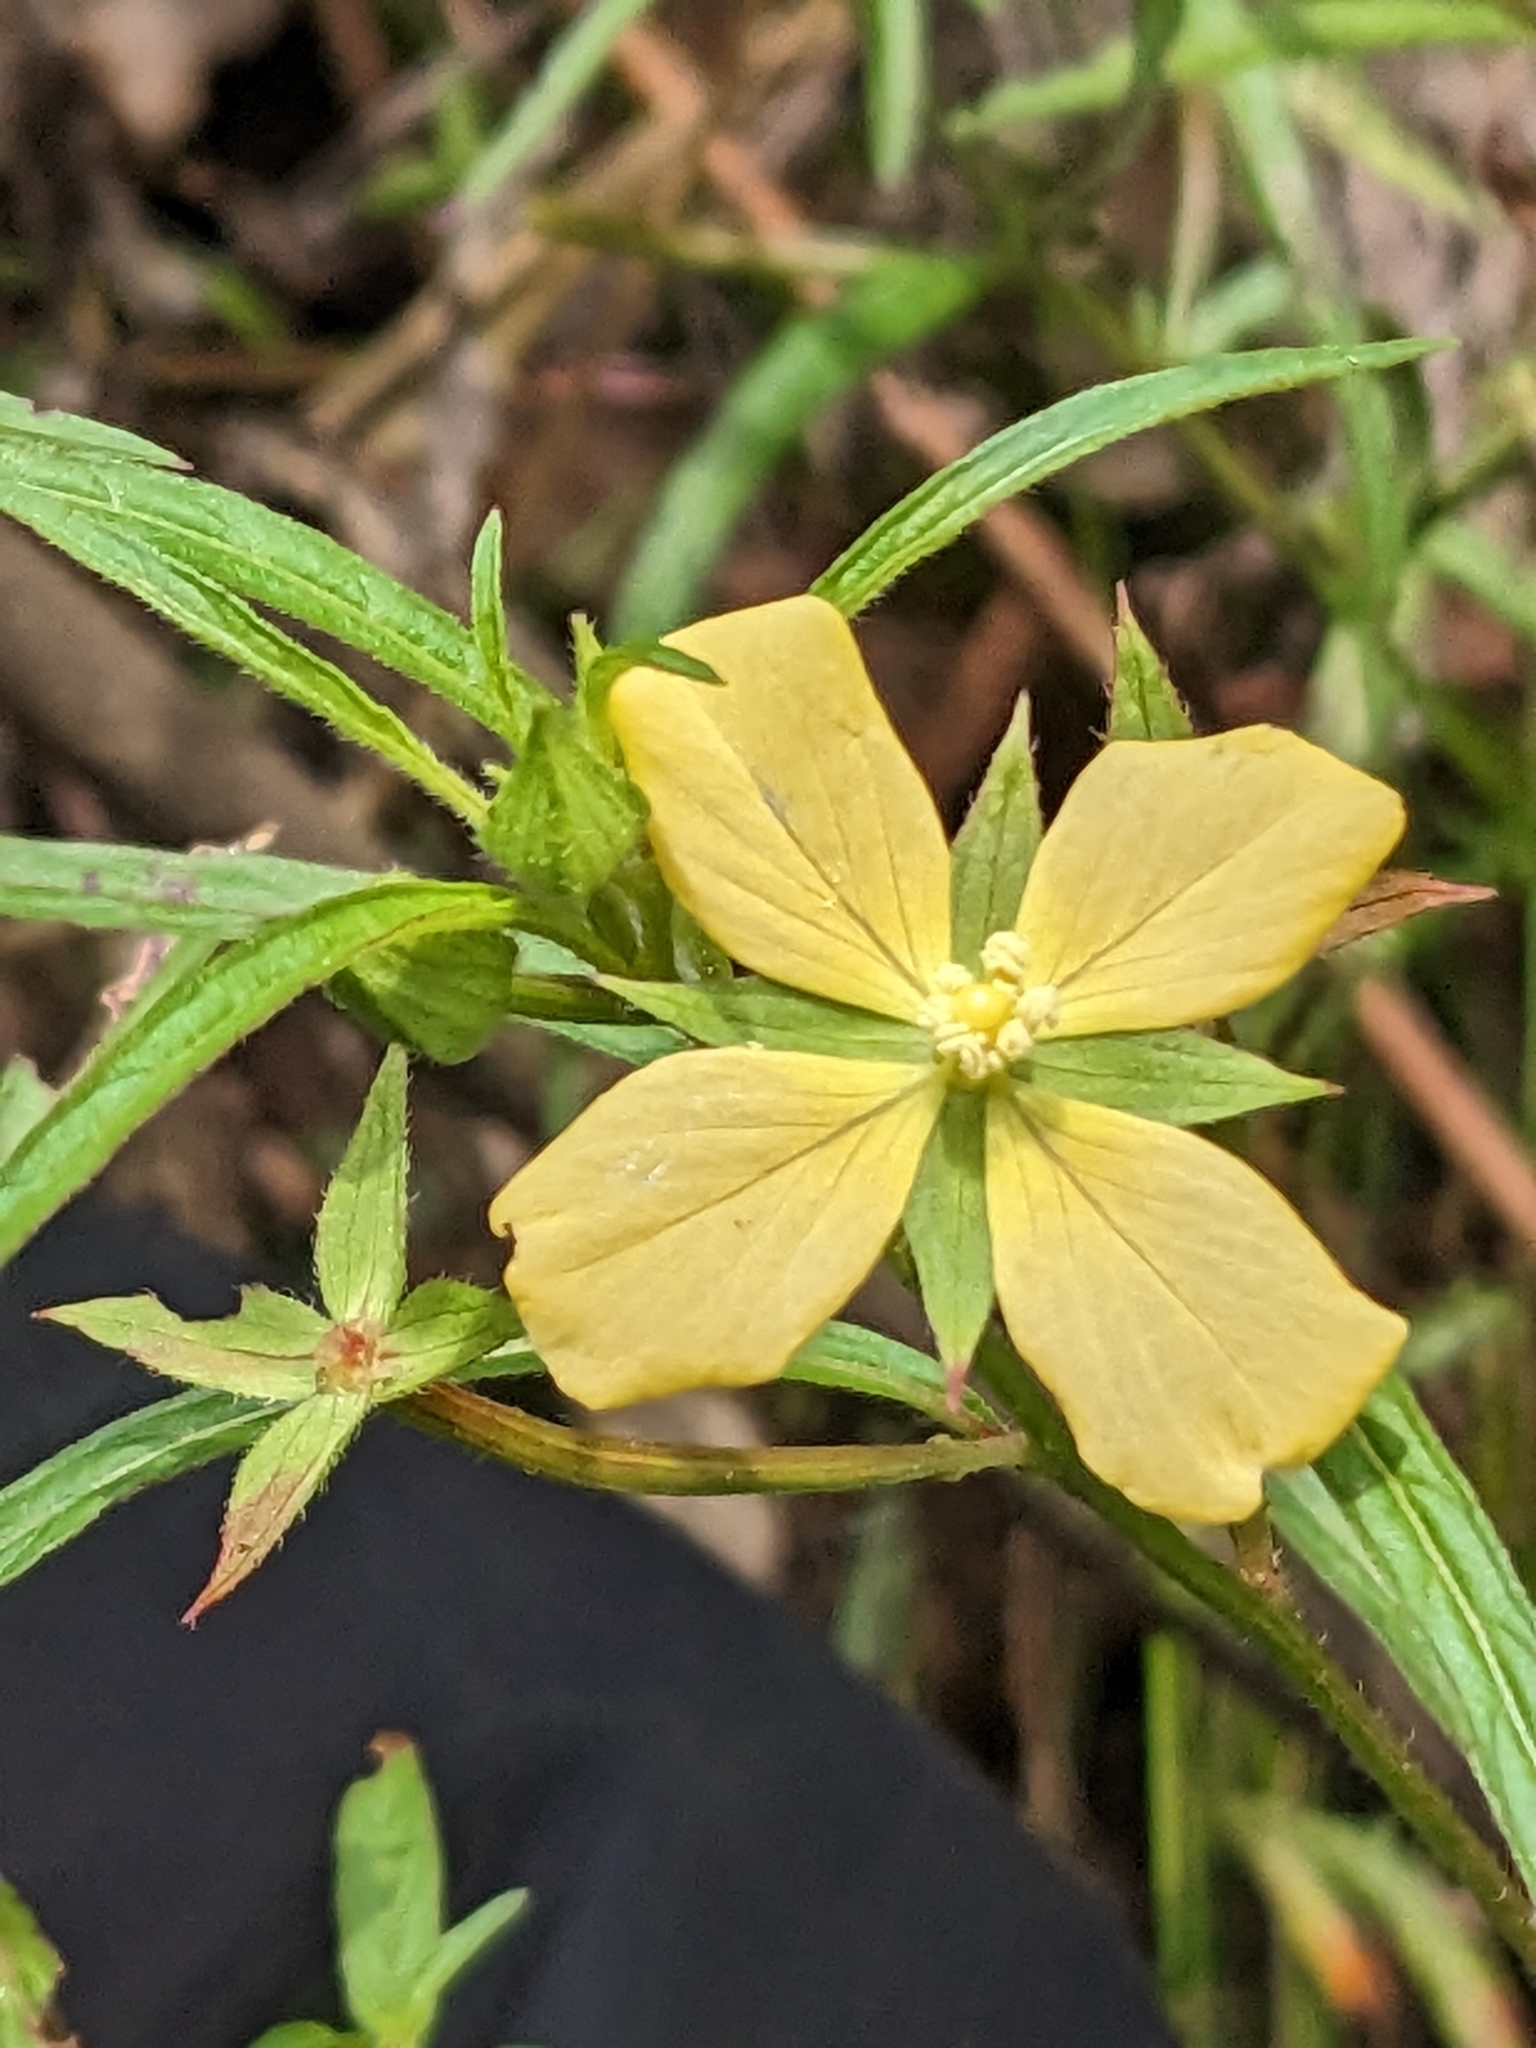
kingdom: Plantae
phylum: Tracheophyta
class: Magnoliopsida
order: Myrtales
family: Onagraceae
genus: Ludwigia
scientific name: Ludwigia octovalvis
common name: Water-primrose
